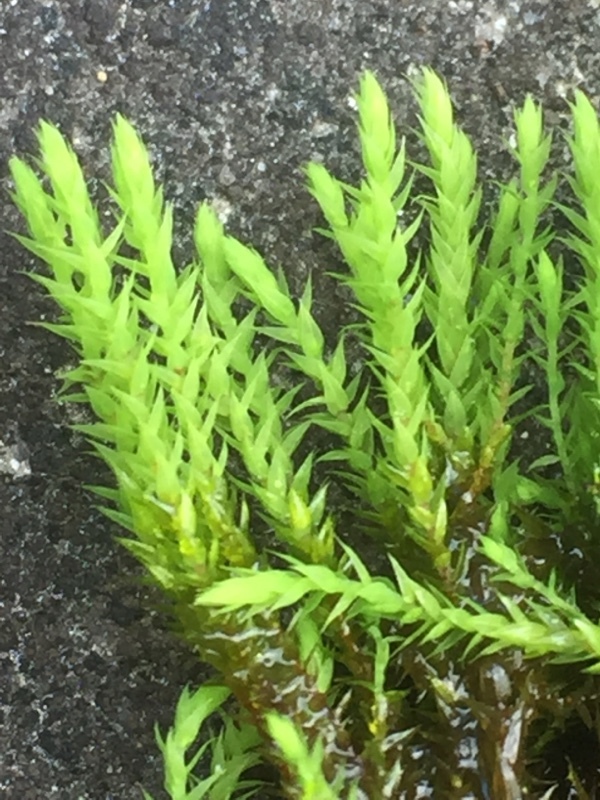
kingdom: Plantae
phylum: Bryophyta
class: Bryopsida
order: Bartramiales
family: Bartramiaceae
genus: Philonotis
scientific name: Philonotis fontana
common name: Fountain apple-moss
